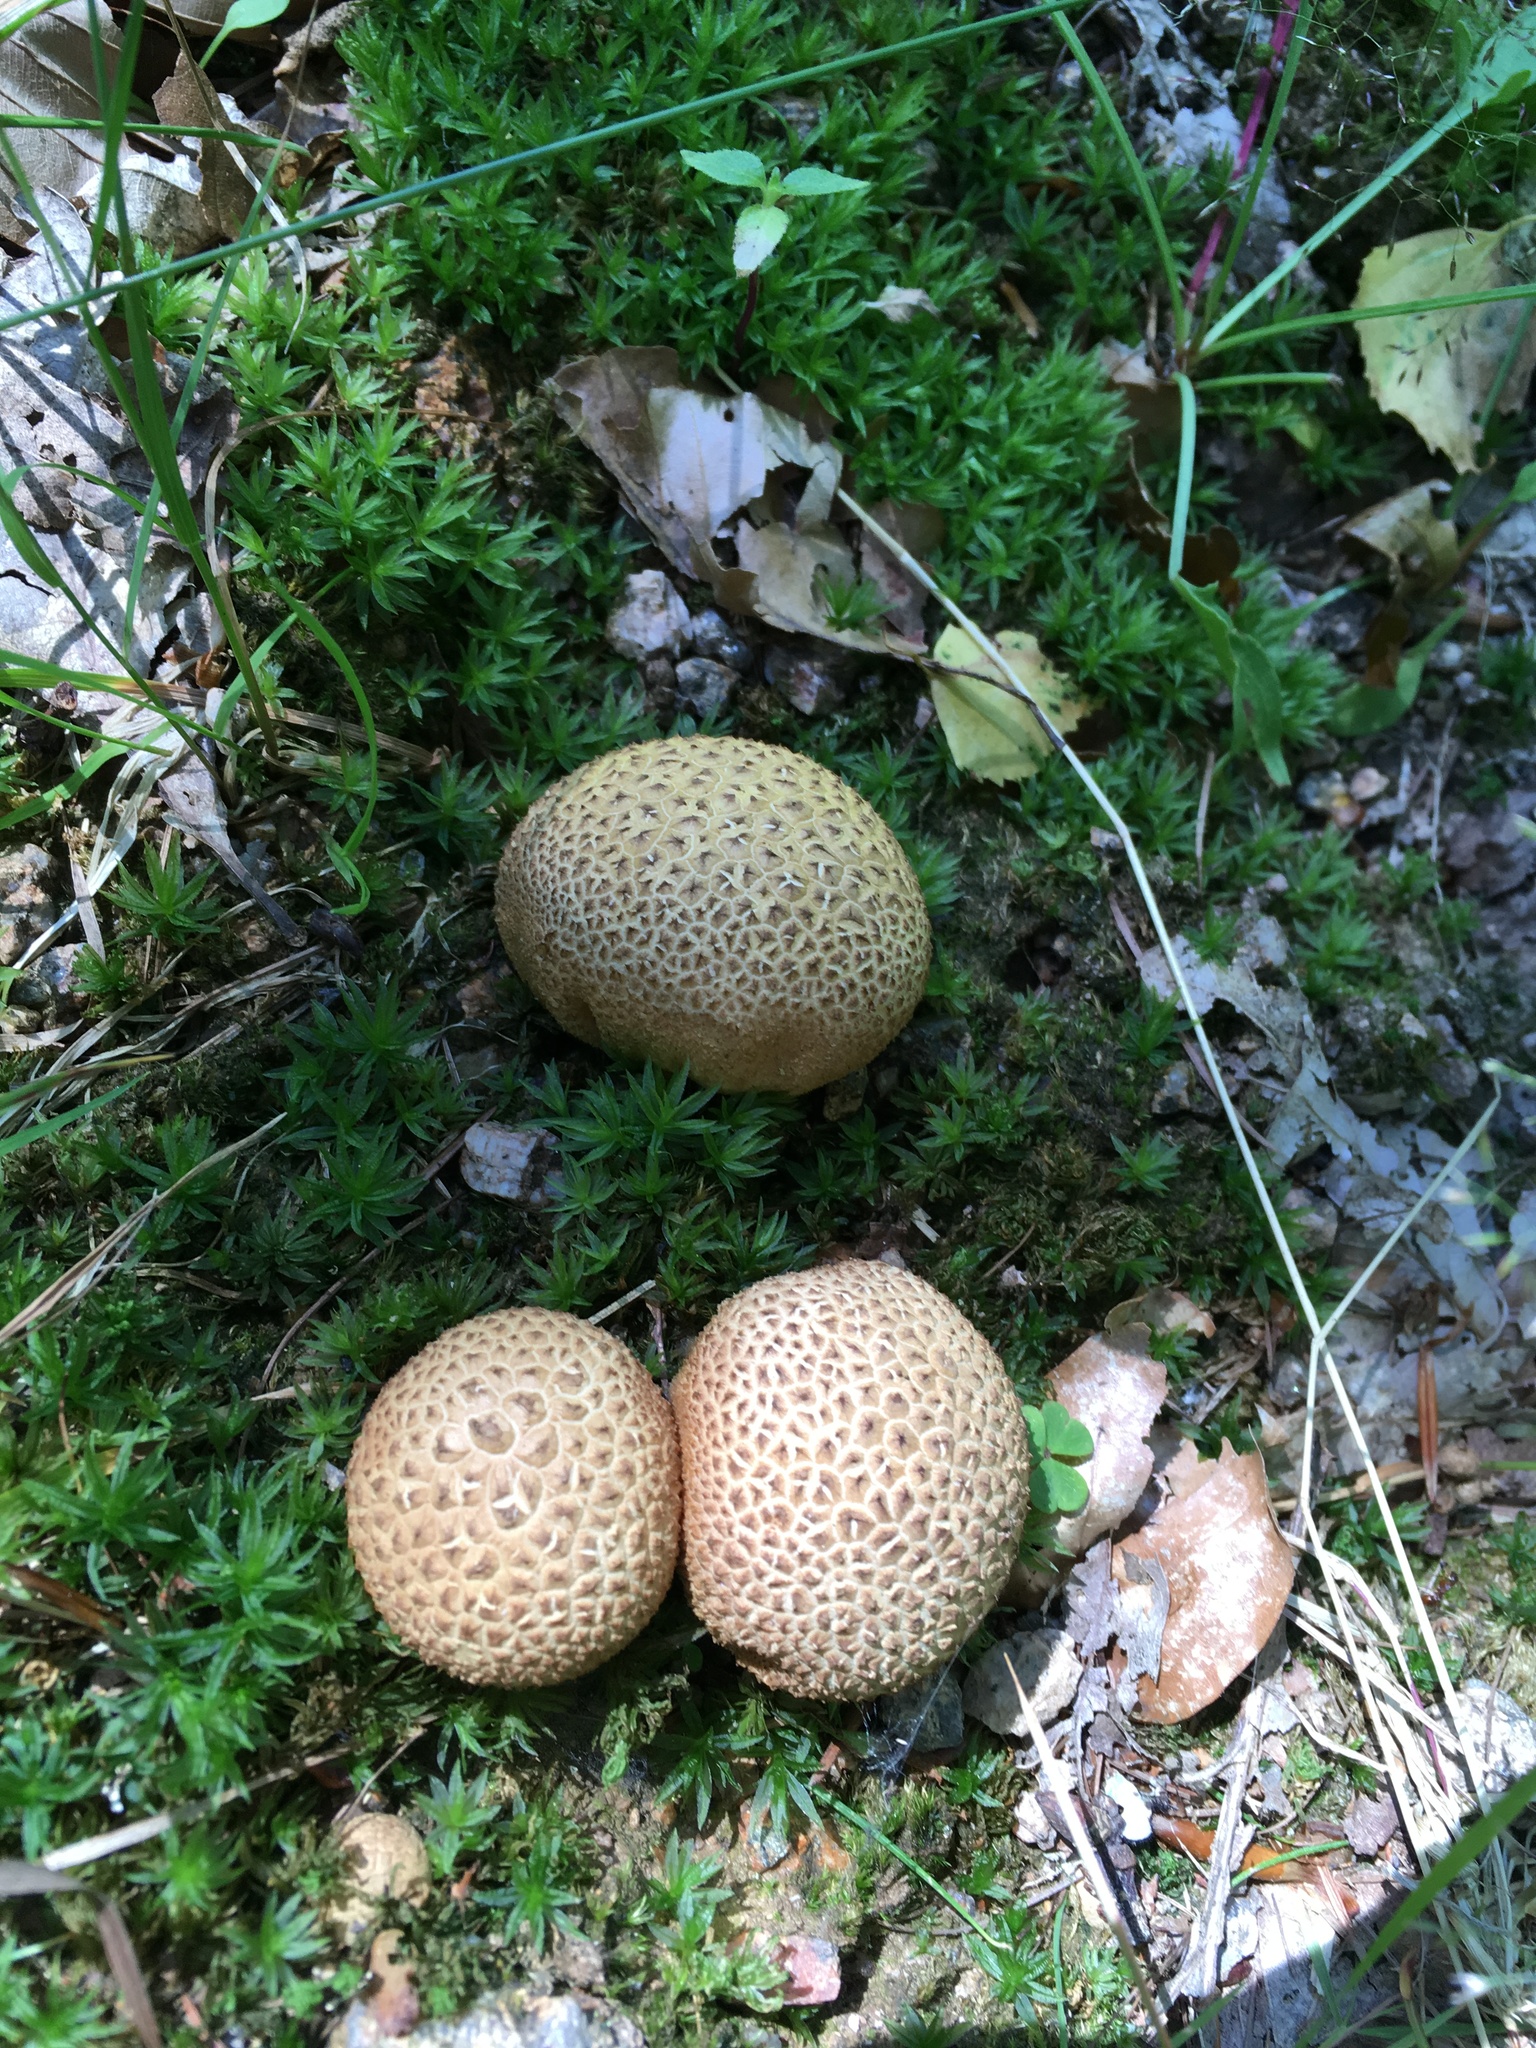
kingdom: Fungi
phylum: Basidiomycota
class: Agaricomycetes
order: Boletales
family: Sclerodermataceae
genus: Scleroderma
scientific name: Scleroderma citrinum
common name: Common earthball
